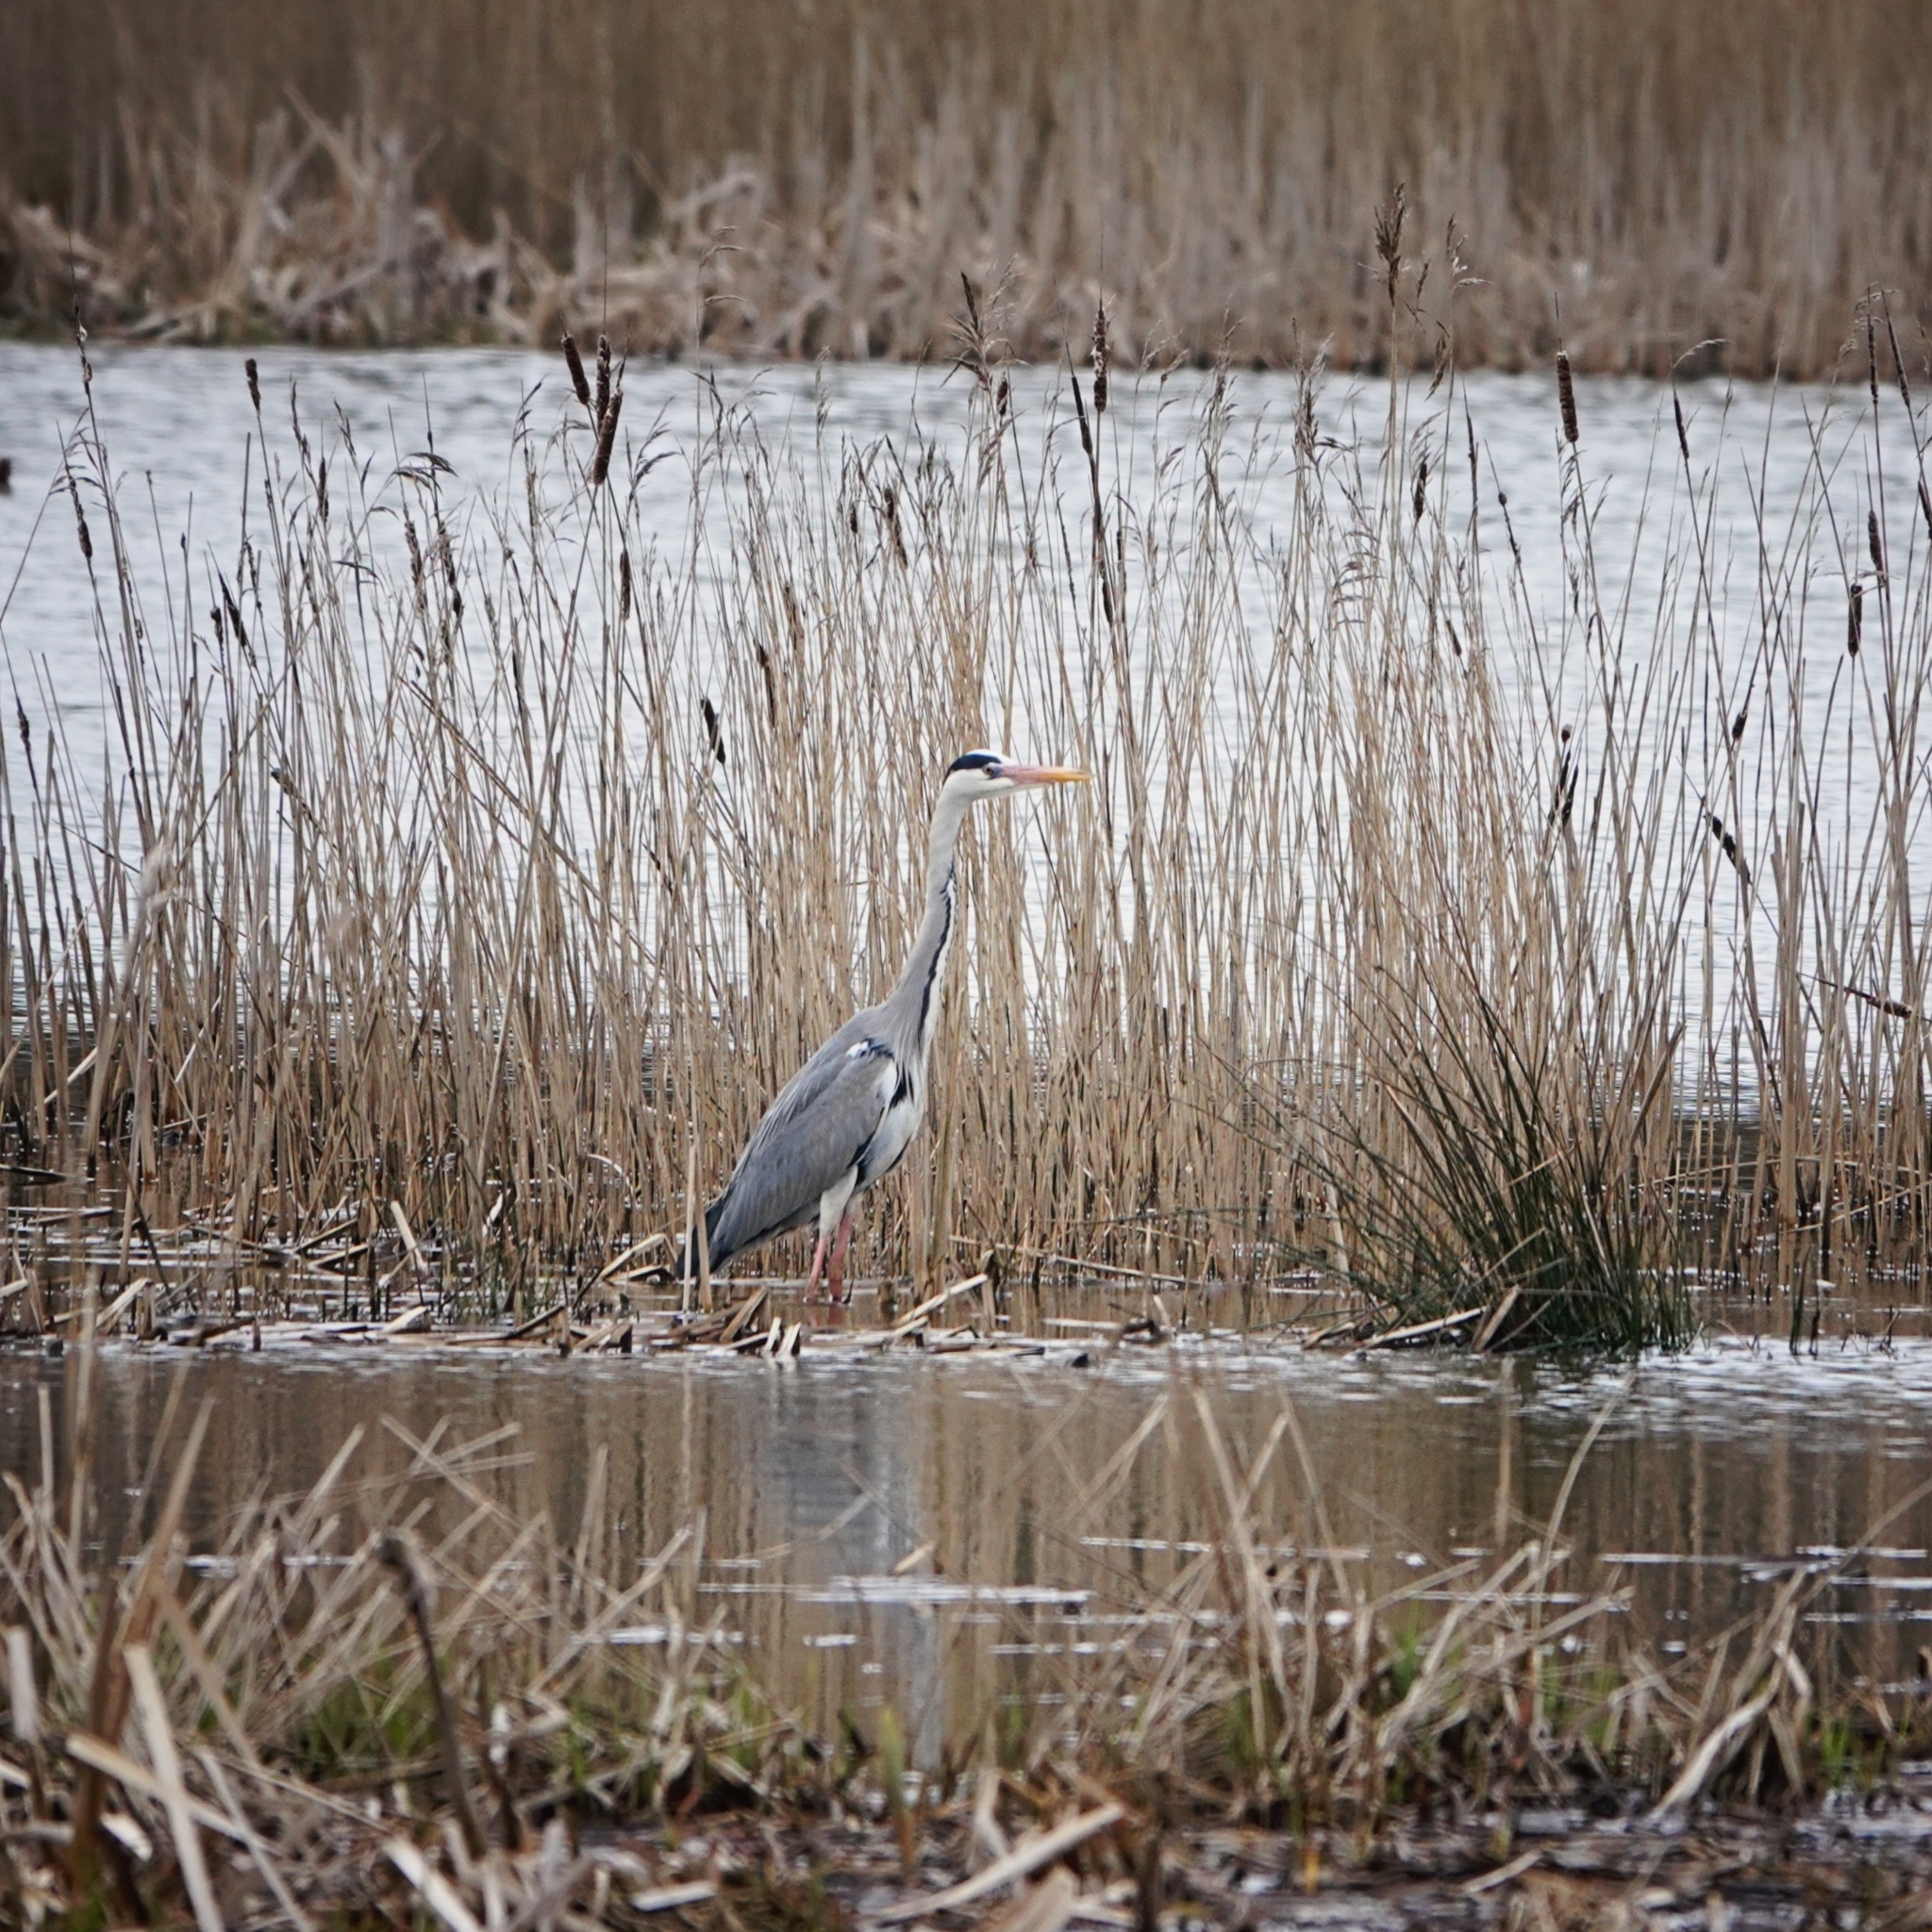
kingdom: Animalia
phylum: Chordata
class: Aves
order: Pelecaniformes
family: Ardeidae
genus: Ardea
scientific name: Ardea cinerea
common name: Grey heron
